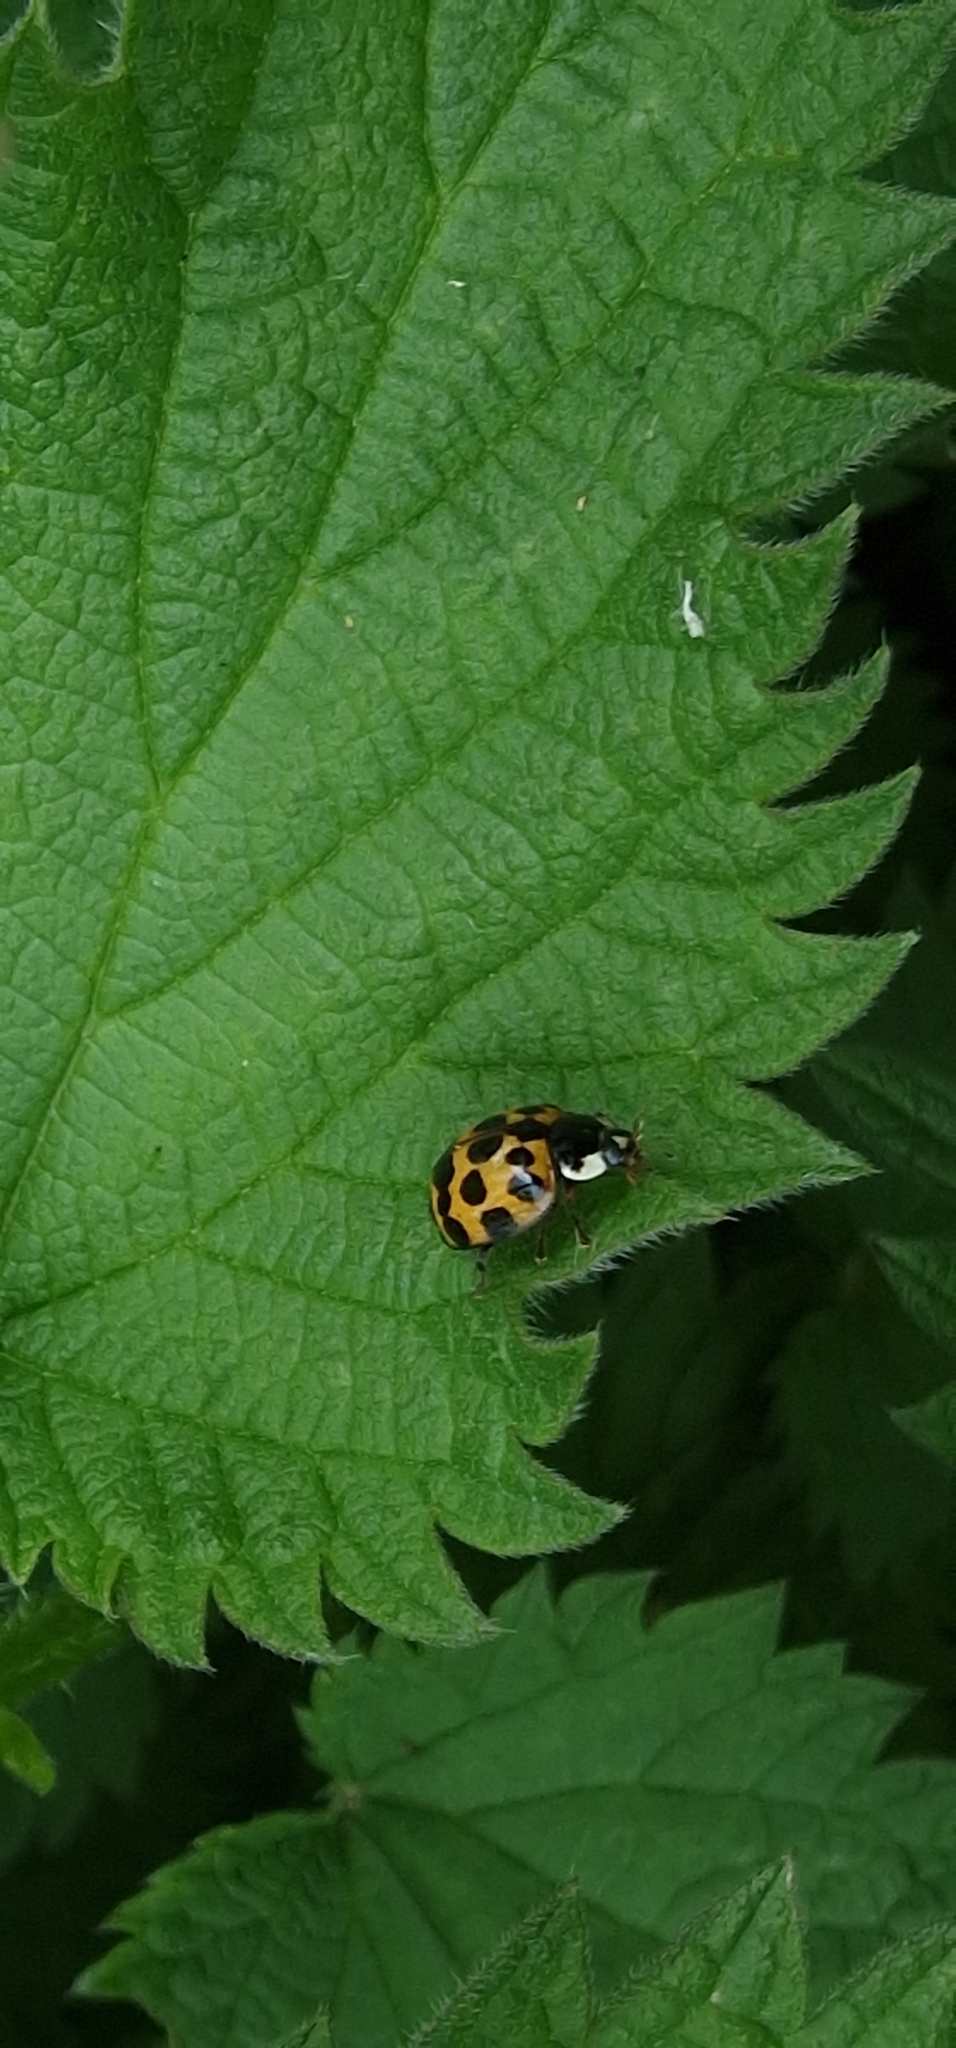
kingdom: Animalia
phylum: Arthropoda
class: Insecta
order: Coleoptera
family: Coccinellidae
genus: Harmonia
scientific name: Harmonia axyridis
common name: Harlequin ladybird
